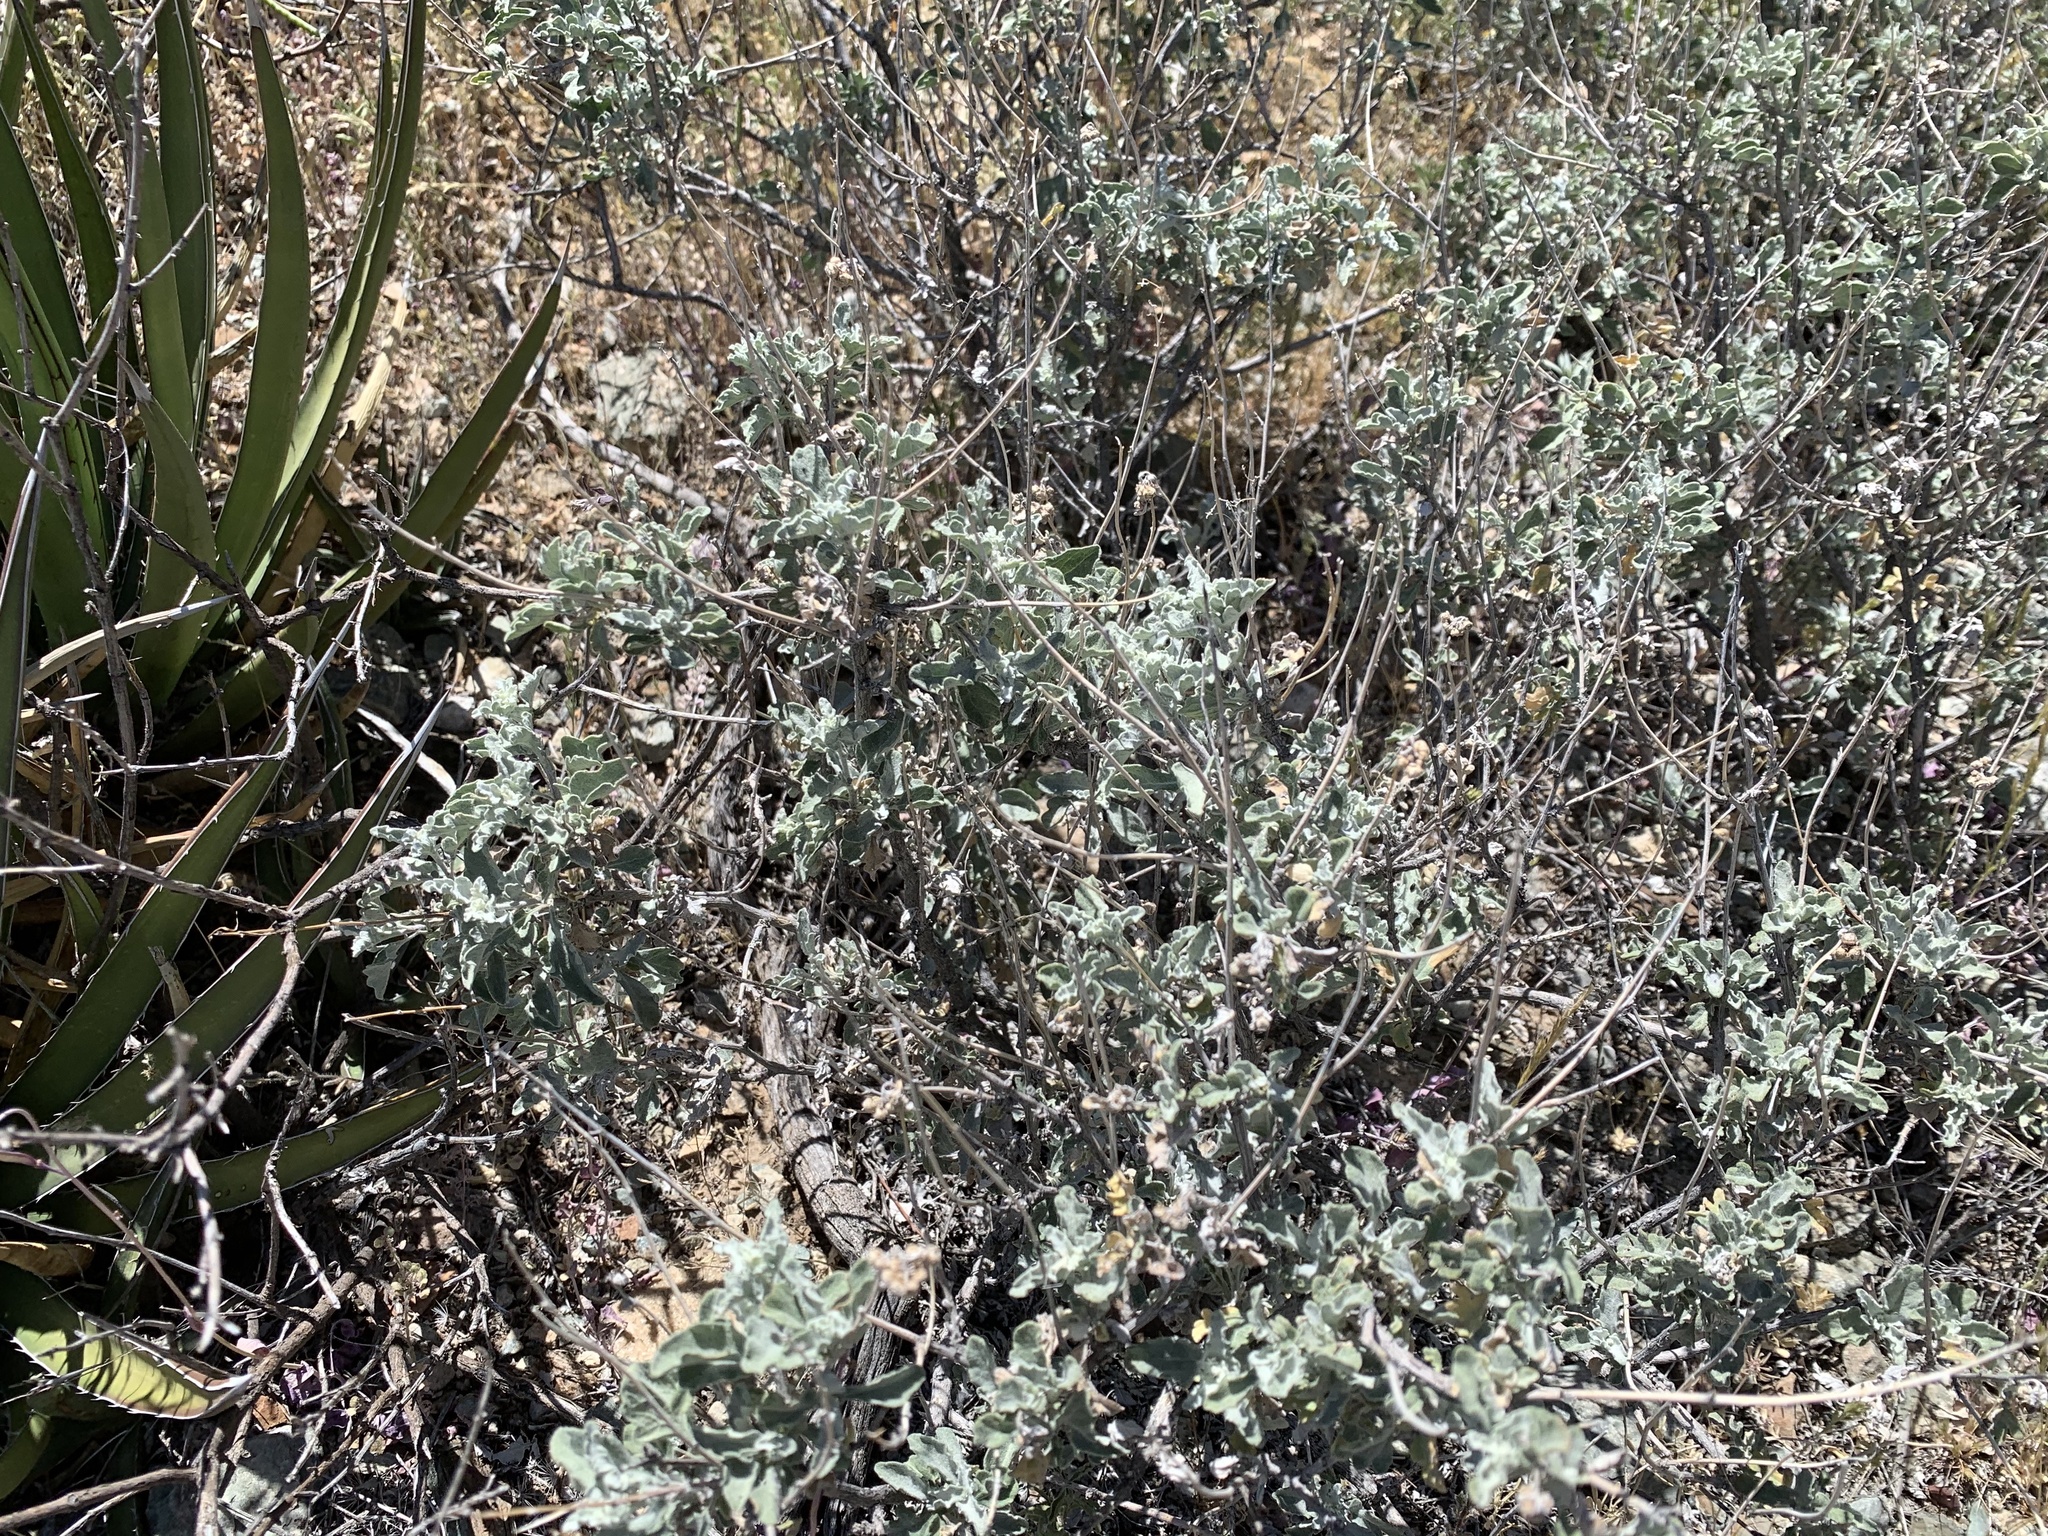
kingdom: Plantae
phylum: Tracheophyta
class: Magnoliopsida
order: Asterales
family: Asteraceae
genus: Parthenium
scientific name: Parthenium incanum
